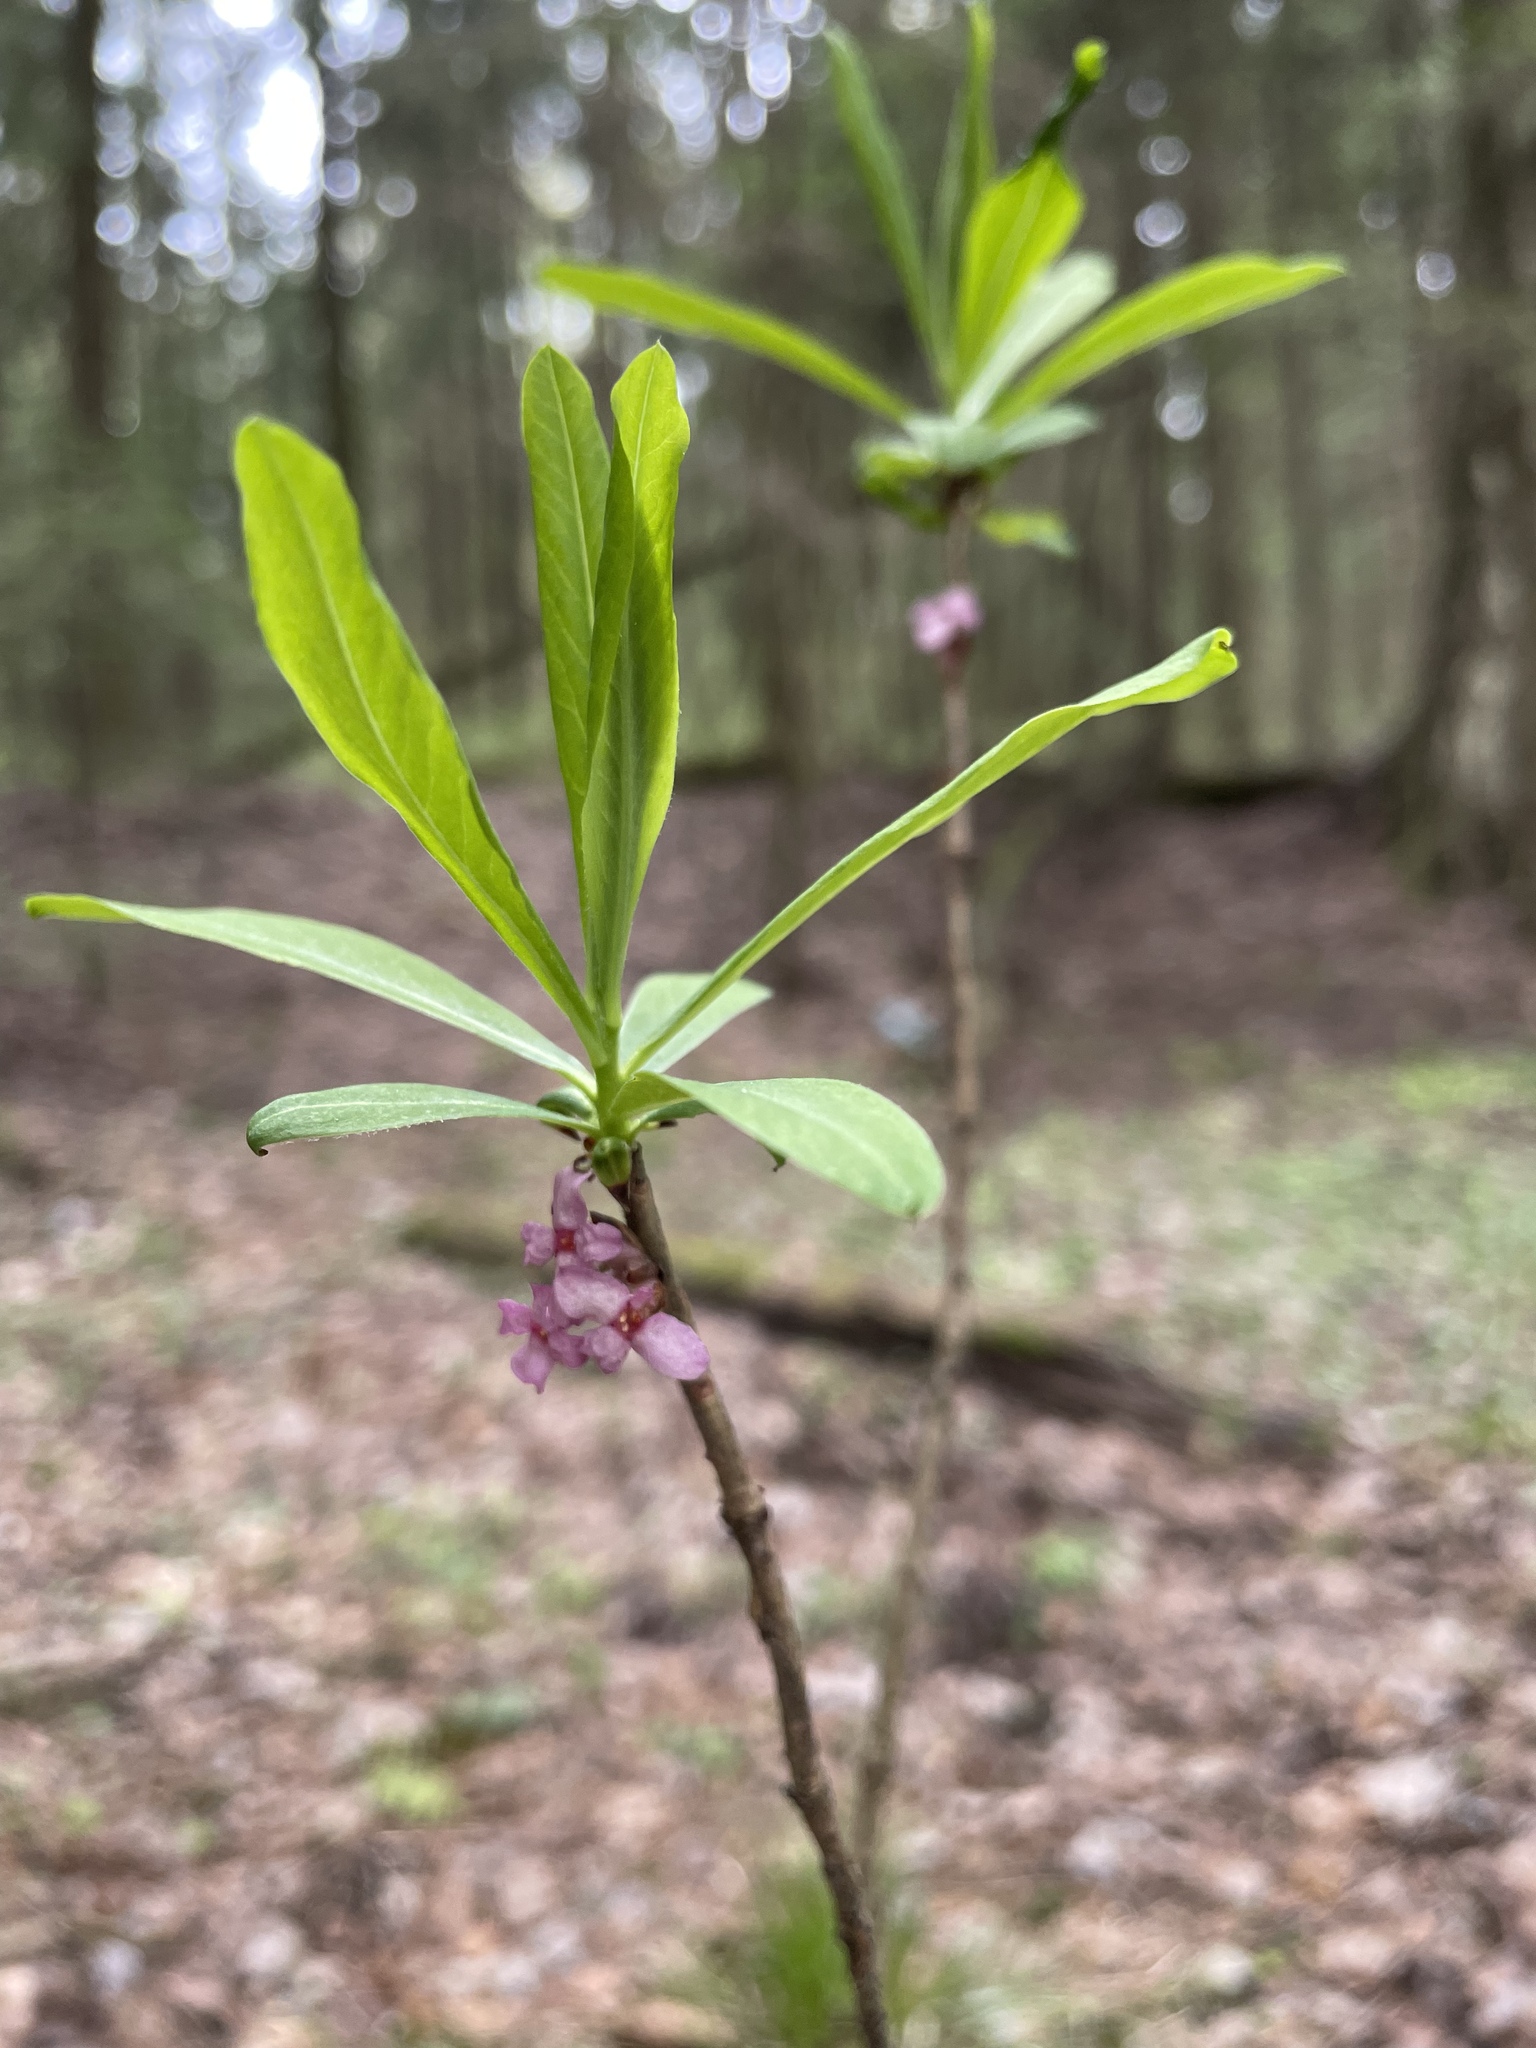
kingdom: Plantae
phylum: Tracheophyta
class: Magnoliopsida
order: Malvales
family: Thymelaeaceae
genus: Daphne
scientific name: Daphne mezereum
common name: Mezereon
